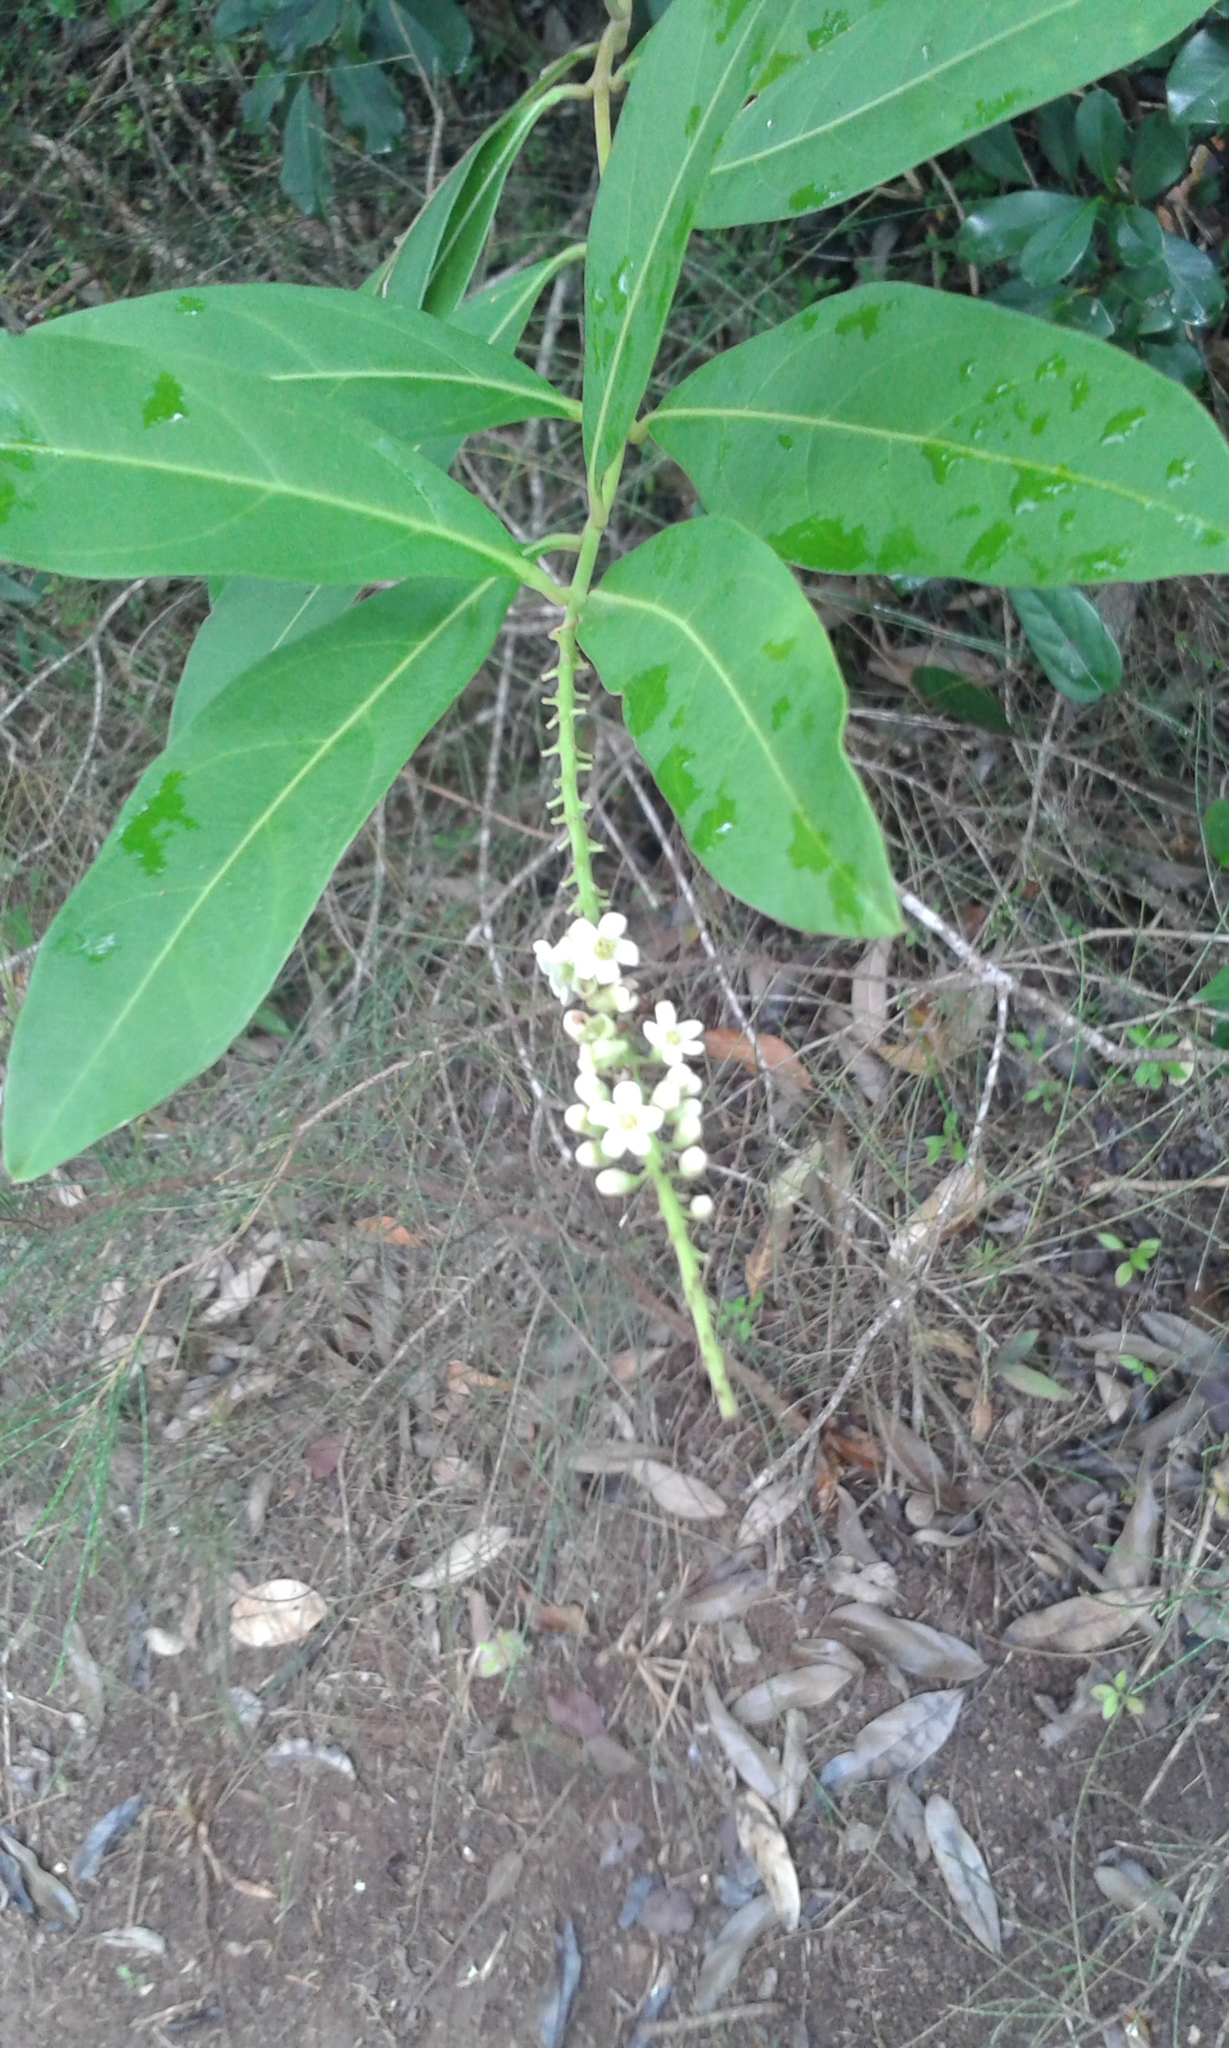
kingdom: Plantae
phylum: Tracheophyta
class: Magnoliopsida
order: Lamiales
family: Verbenaceae
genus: Citharexylum
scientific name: Citharexylum caudatum
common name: Fiddlewood
